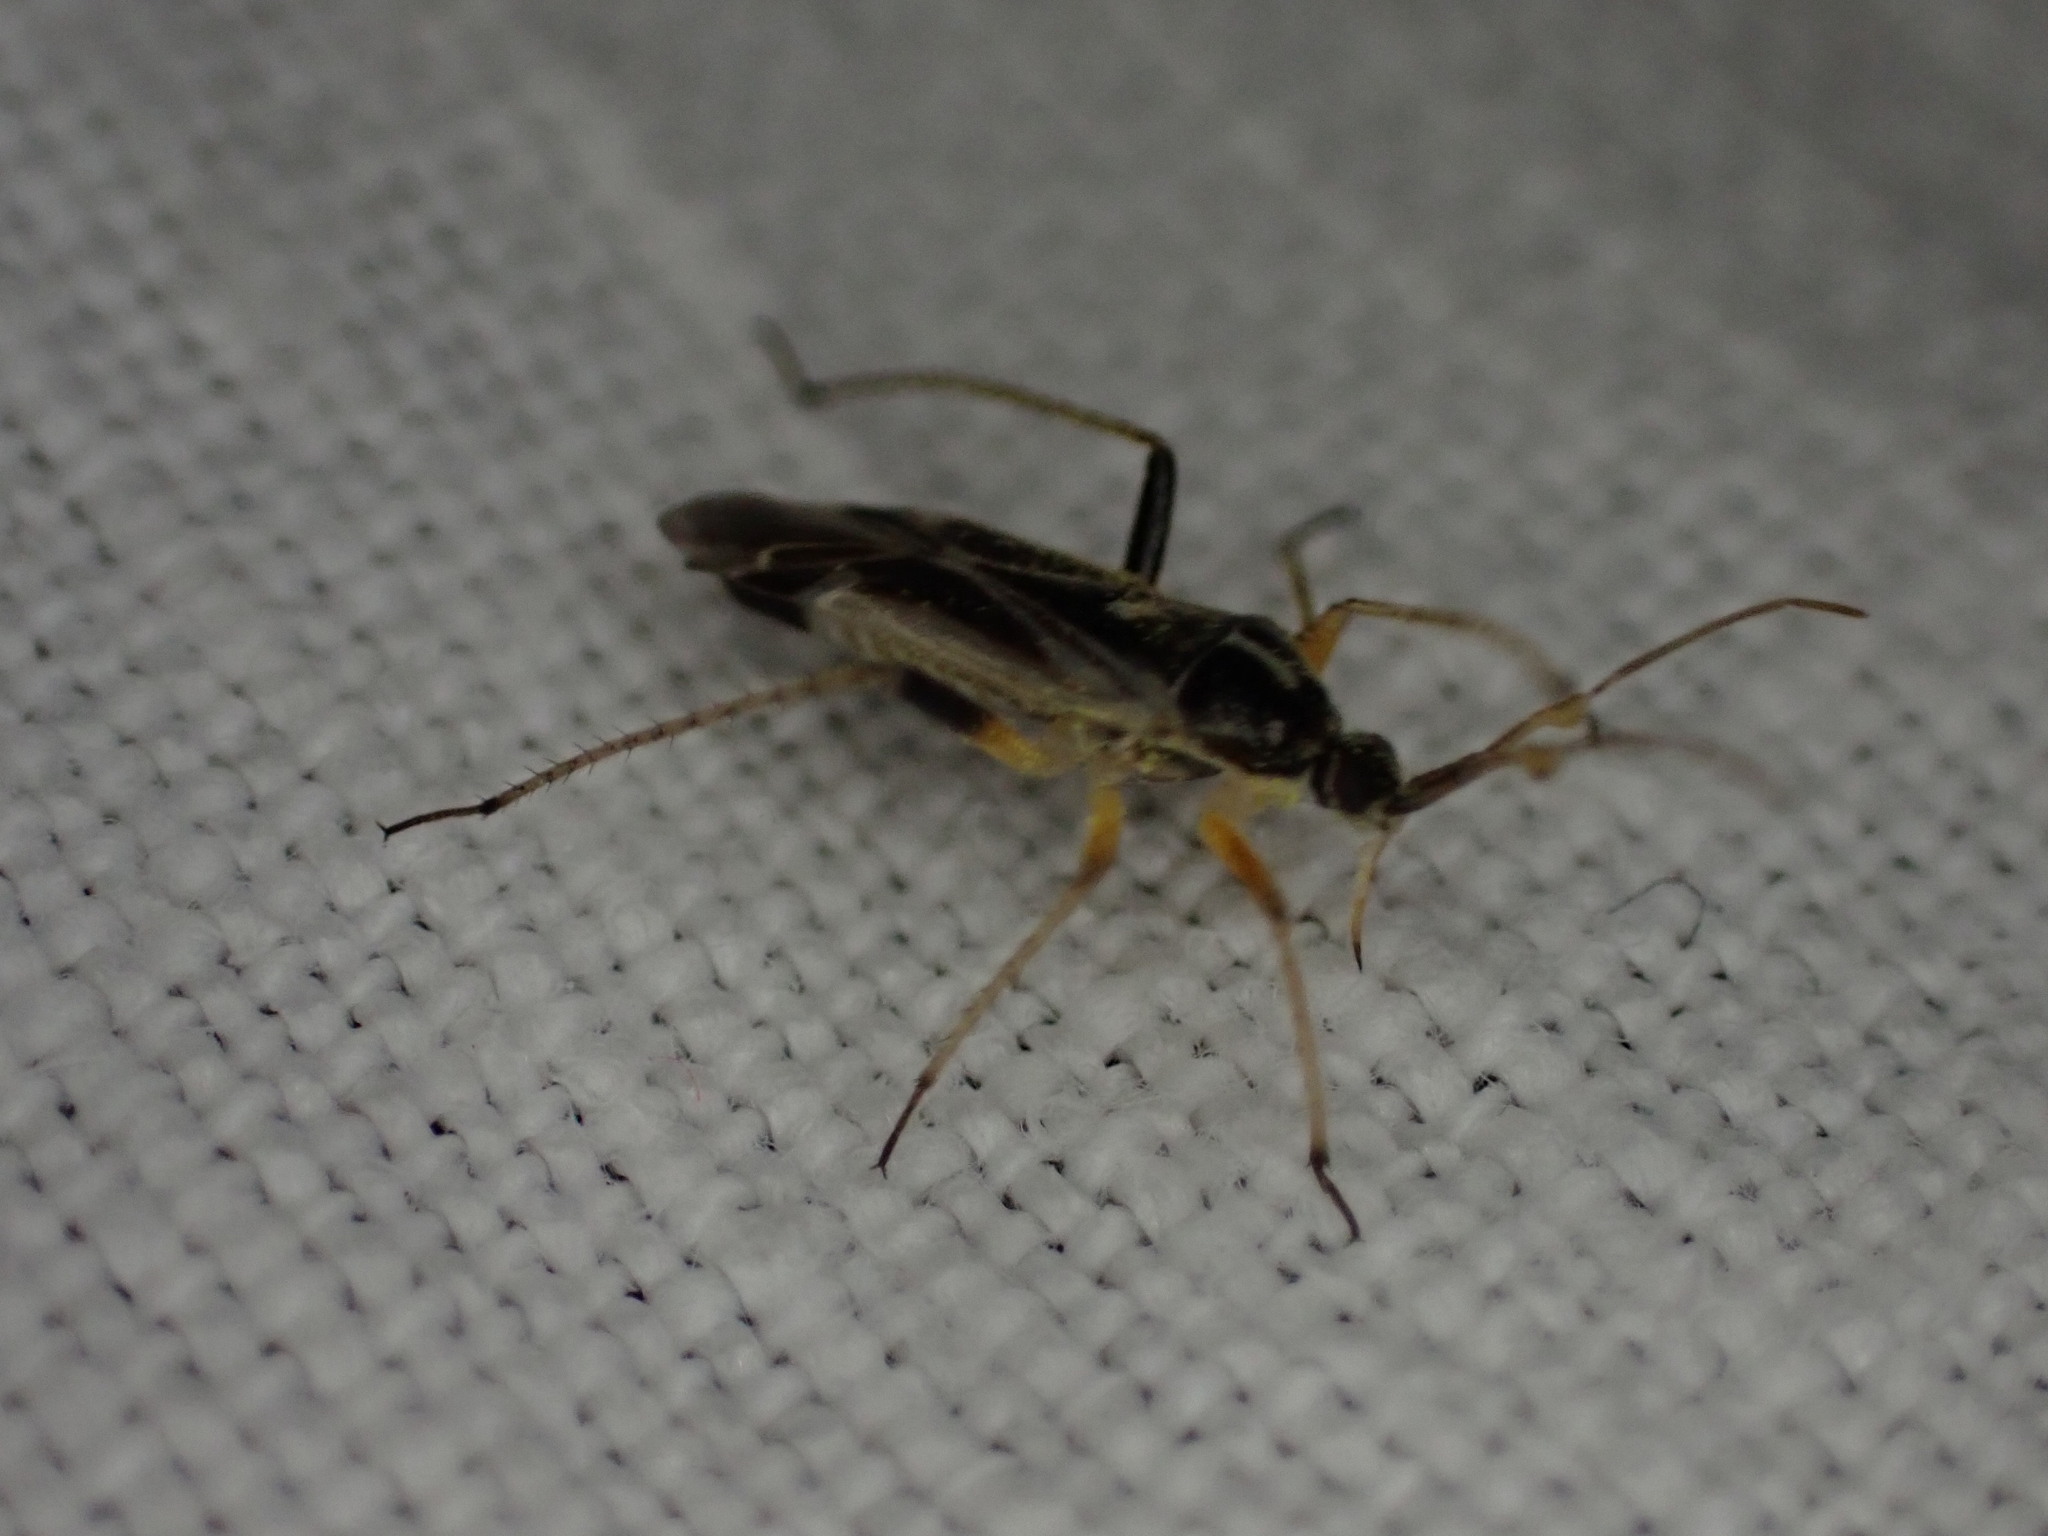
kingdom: Animalia
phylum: Arthropoda
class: Insecta
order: Hemiptera
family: Miridae
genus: Harpocera
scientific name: Harpocera thoracica
